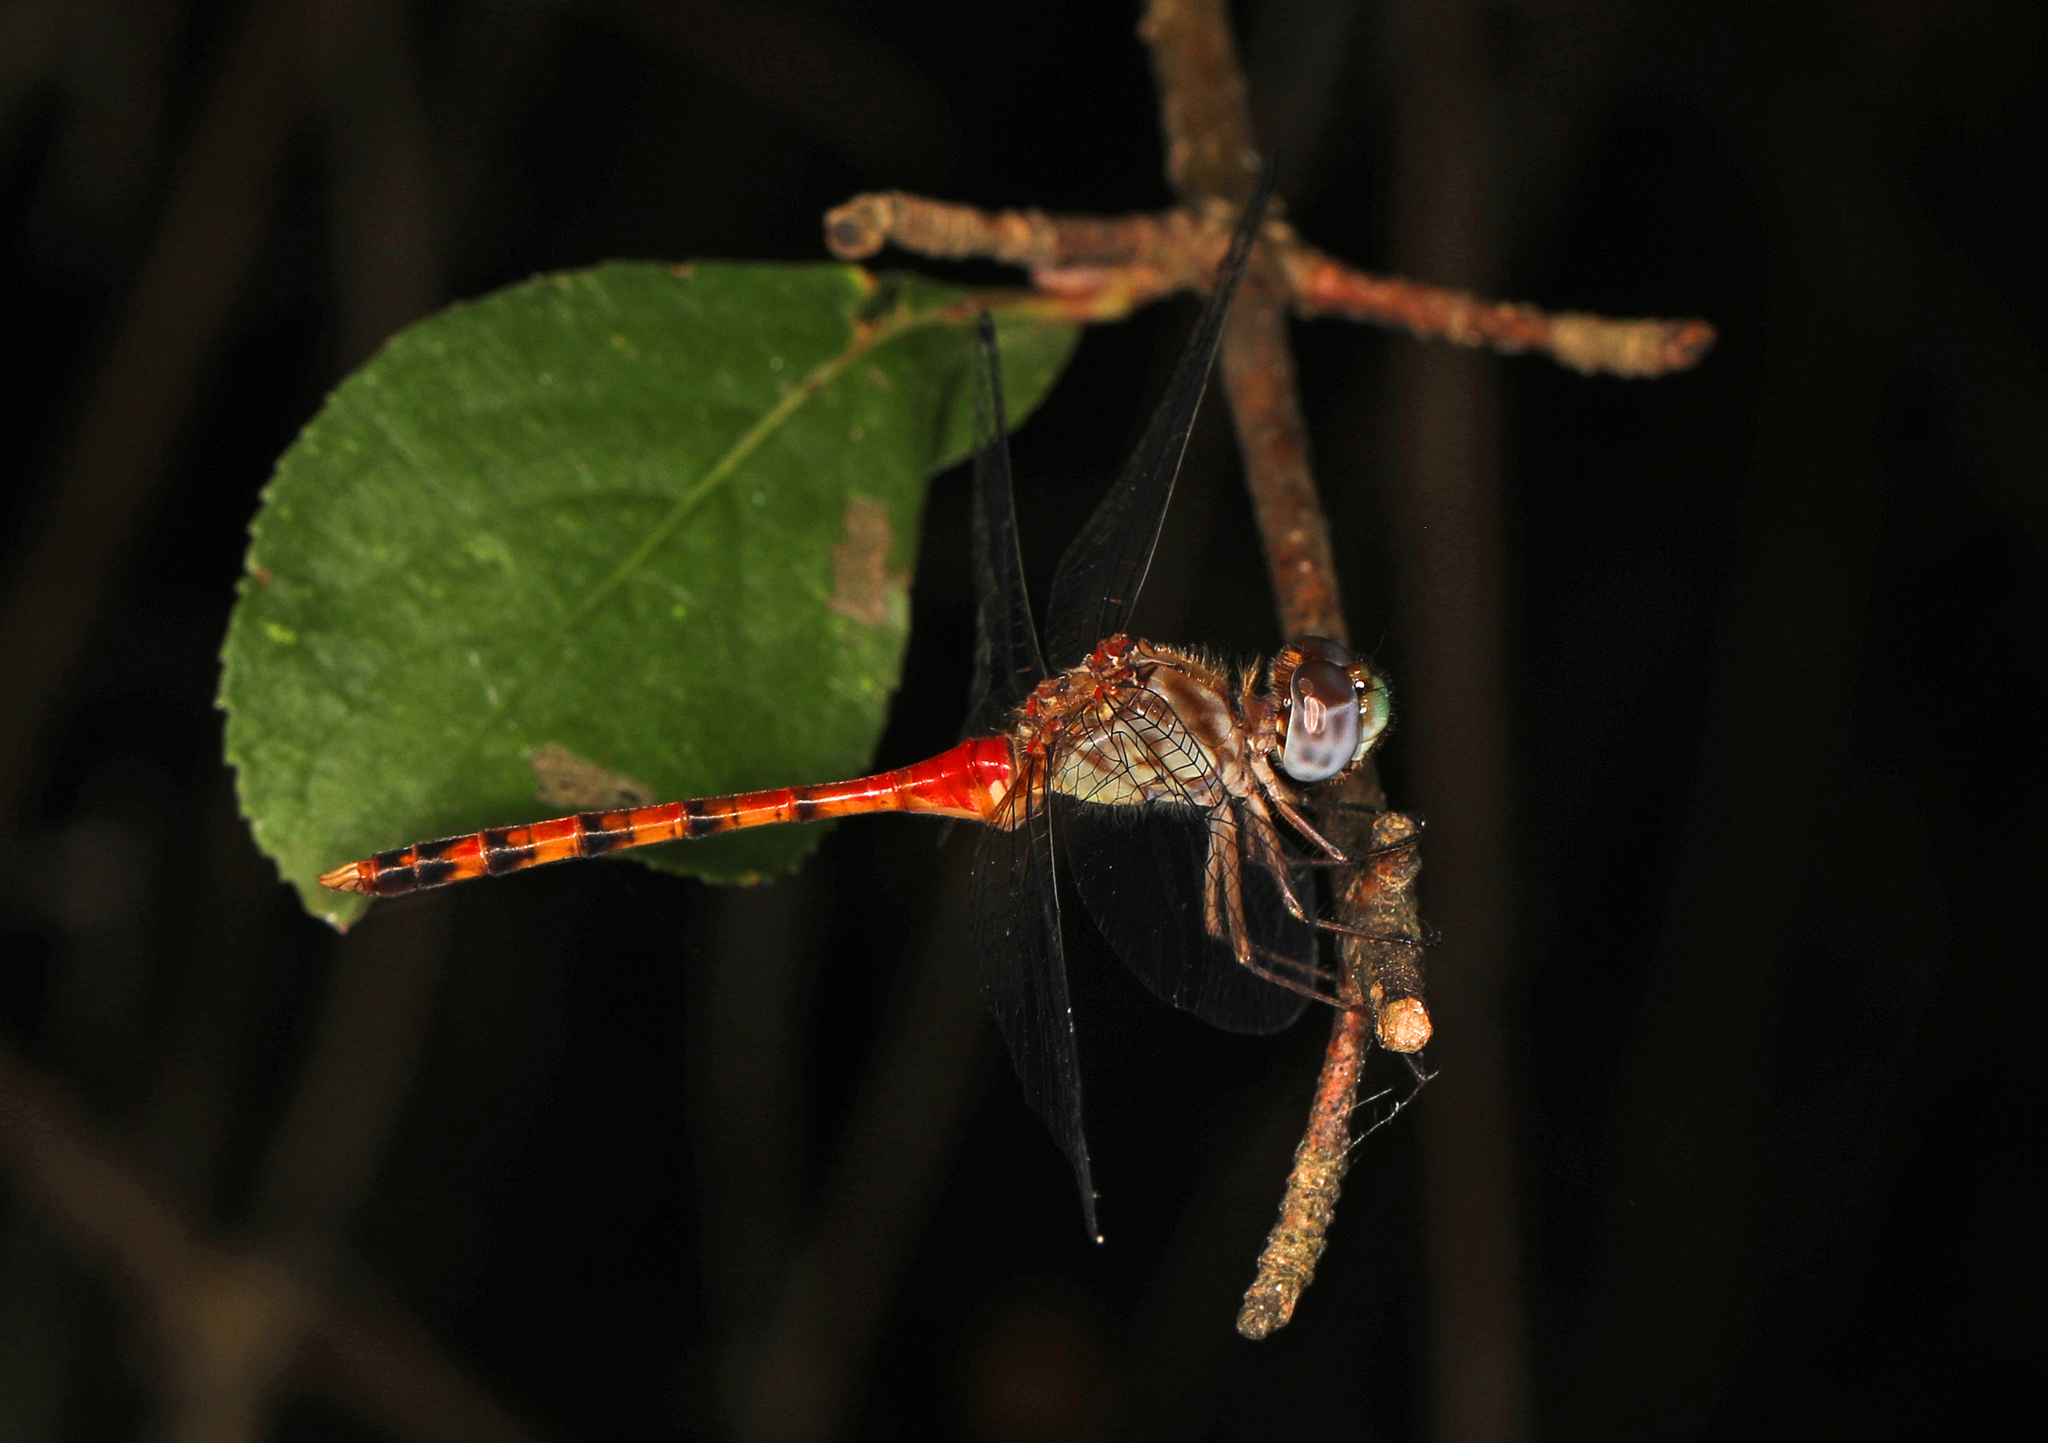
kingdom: Animalia
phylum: Arthropoda
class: Insecta
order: Odonata
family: Libellulidae
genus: Sympetrum
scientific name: Sympetrum ambiguum
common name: Blue-faced meadowhawk
